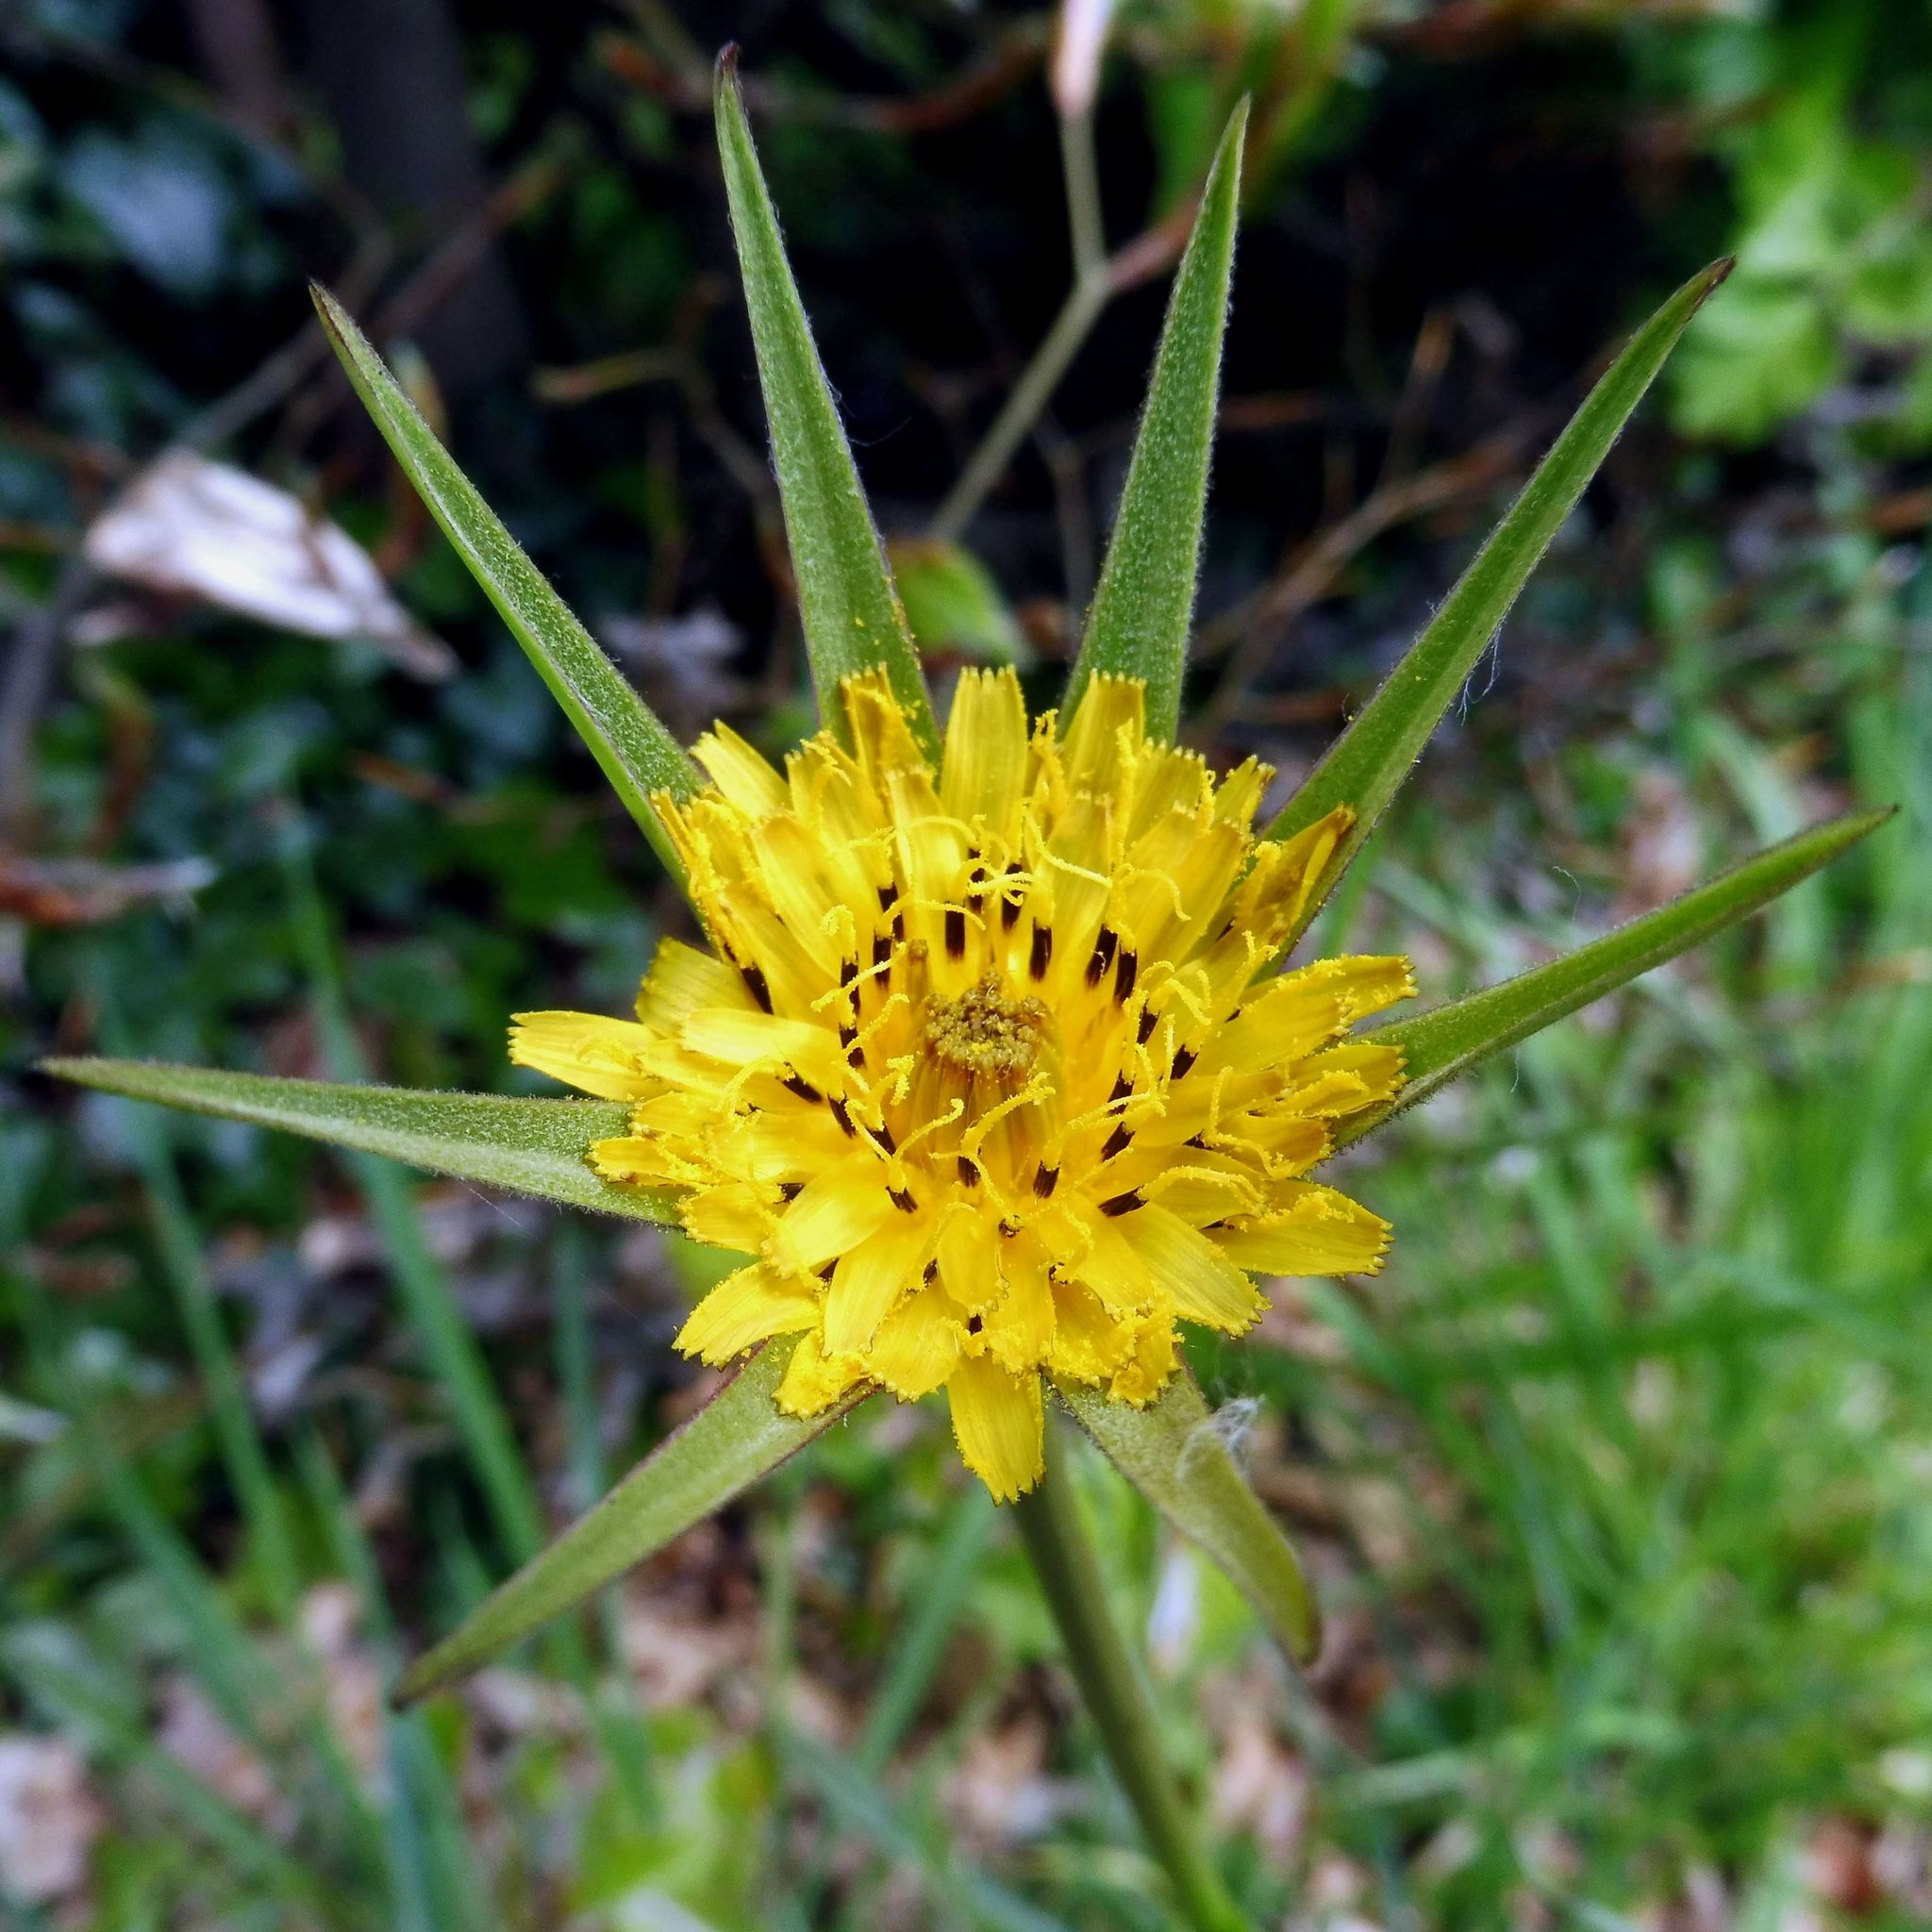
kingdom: Plantae
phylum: Tracheophyta
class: Magnoliopsida
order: Asterales
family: Asteraceae
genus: Tragopogon
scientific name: Tragopogon pratensis
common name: Goat's-beard
